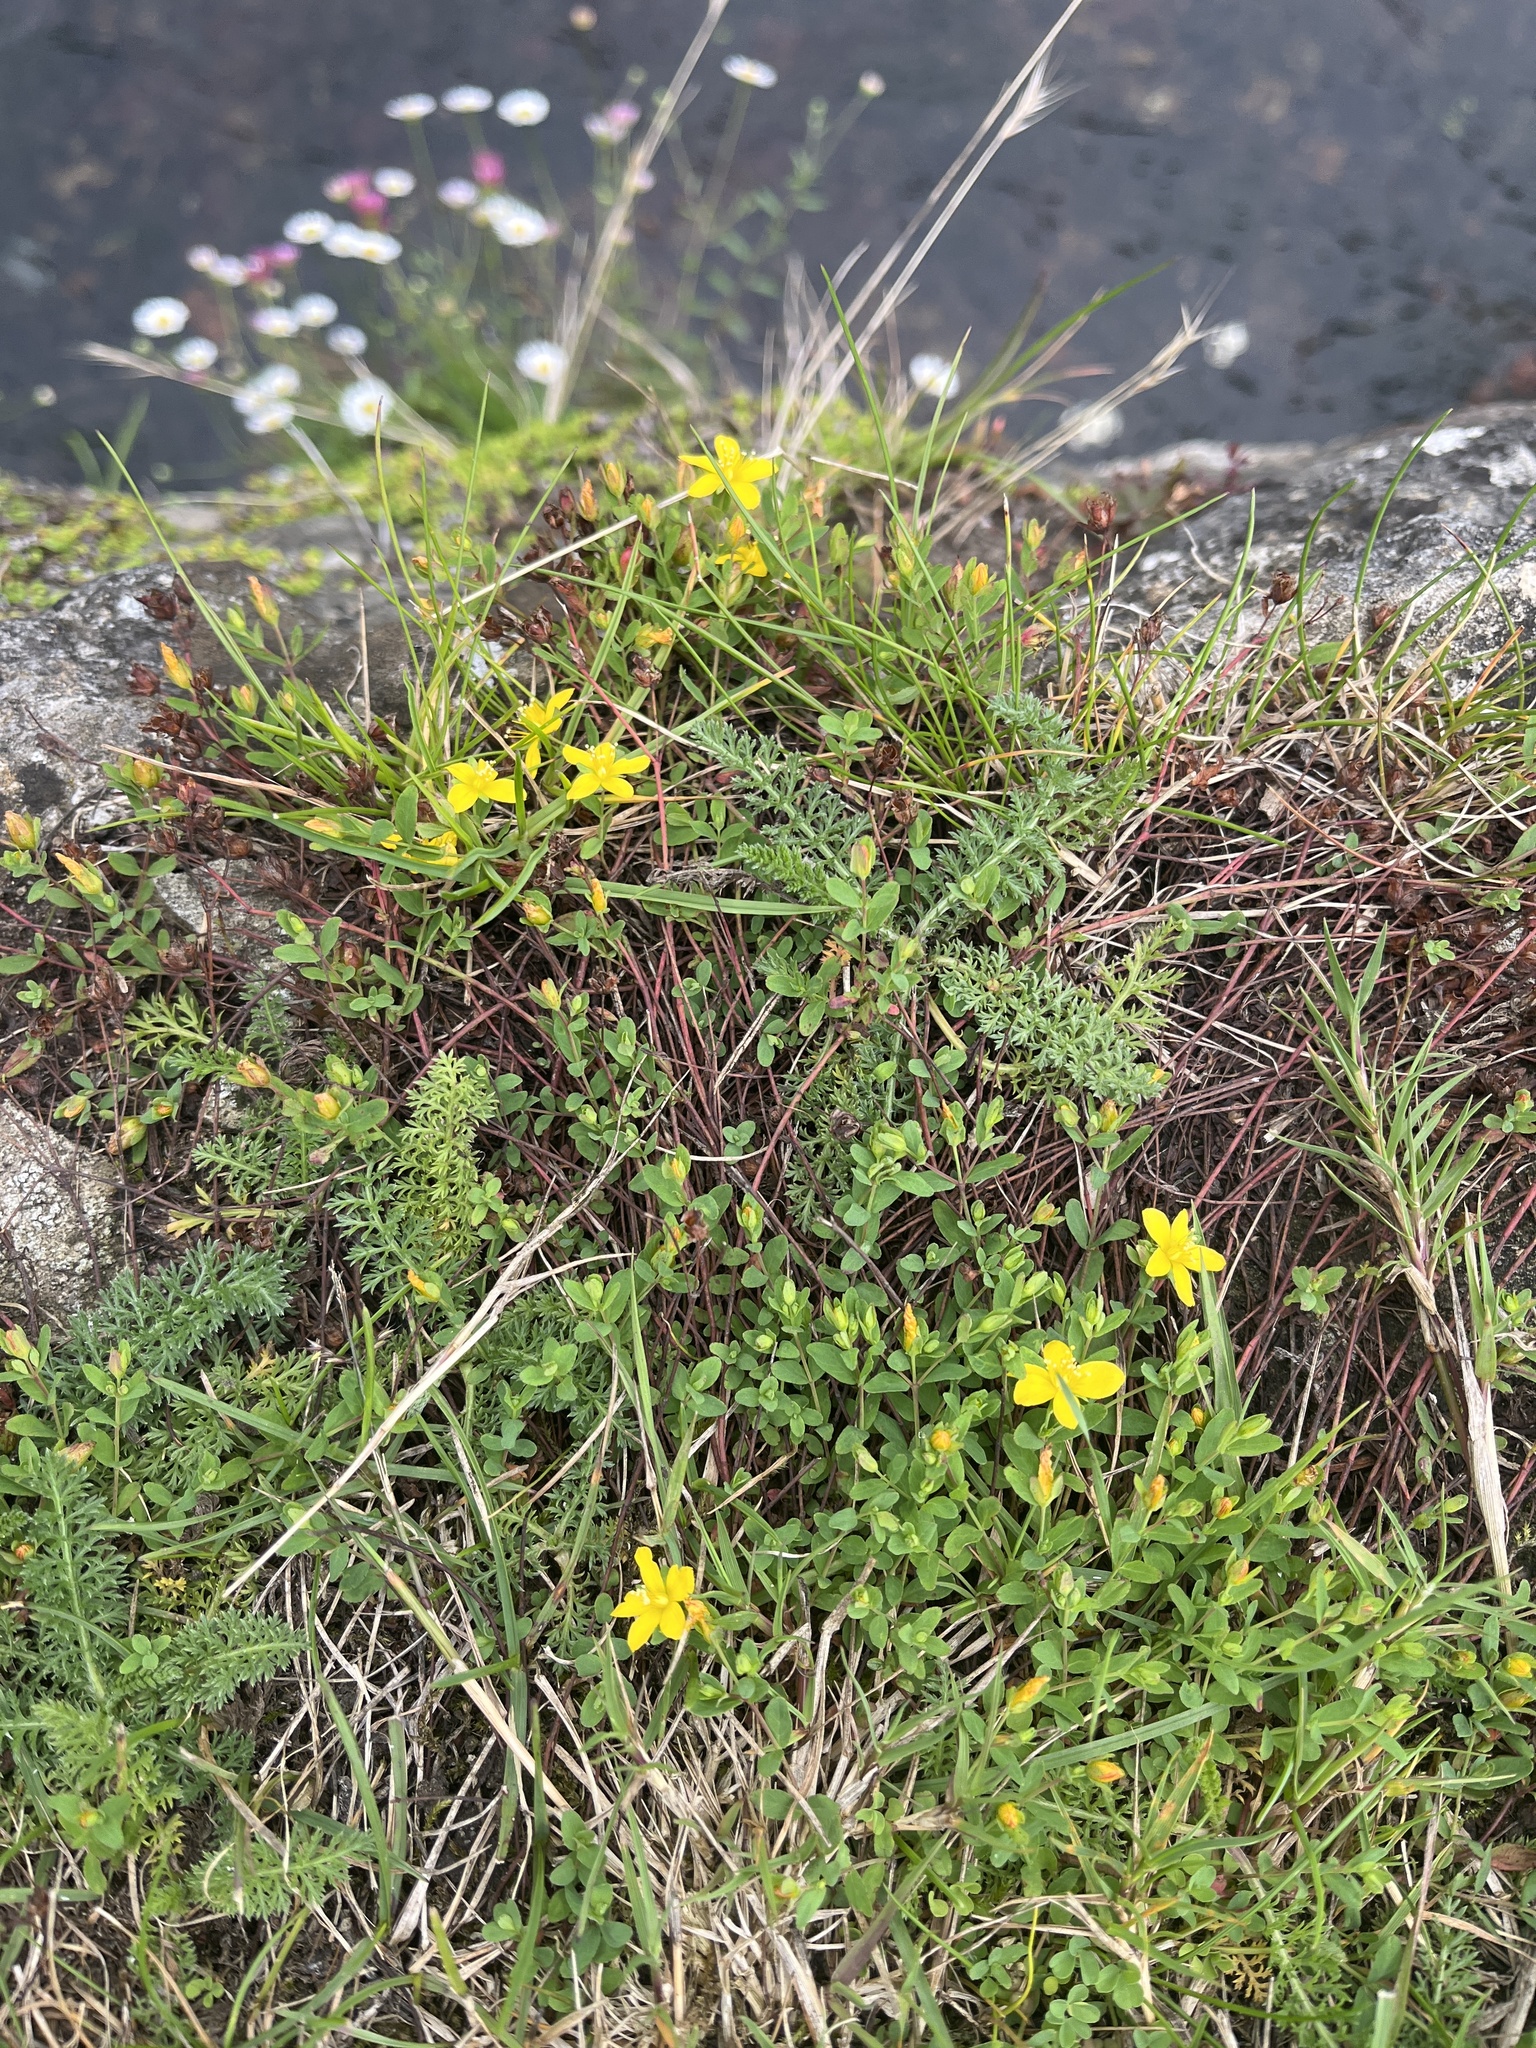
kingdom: Plantae
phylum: Tracheophyta
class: Magnoliopsida
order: Malpighiales
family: Hypericaceae
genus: Hypericum
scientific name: Hypericum humifusum
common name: Trailing st. john's-wort
